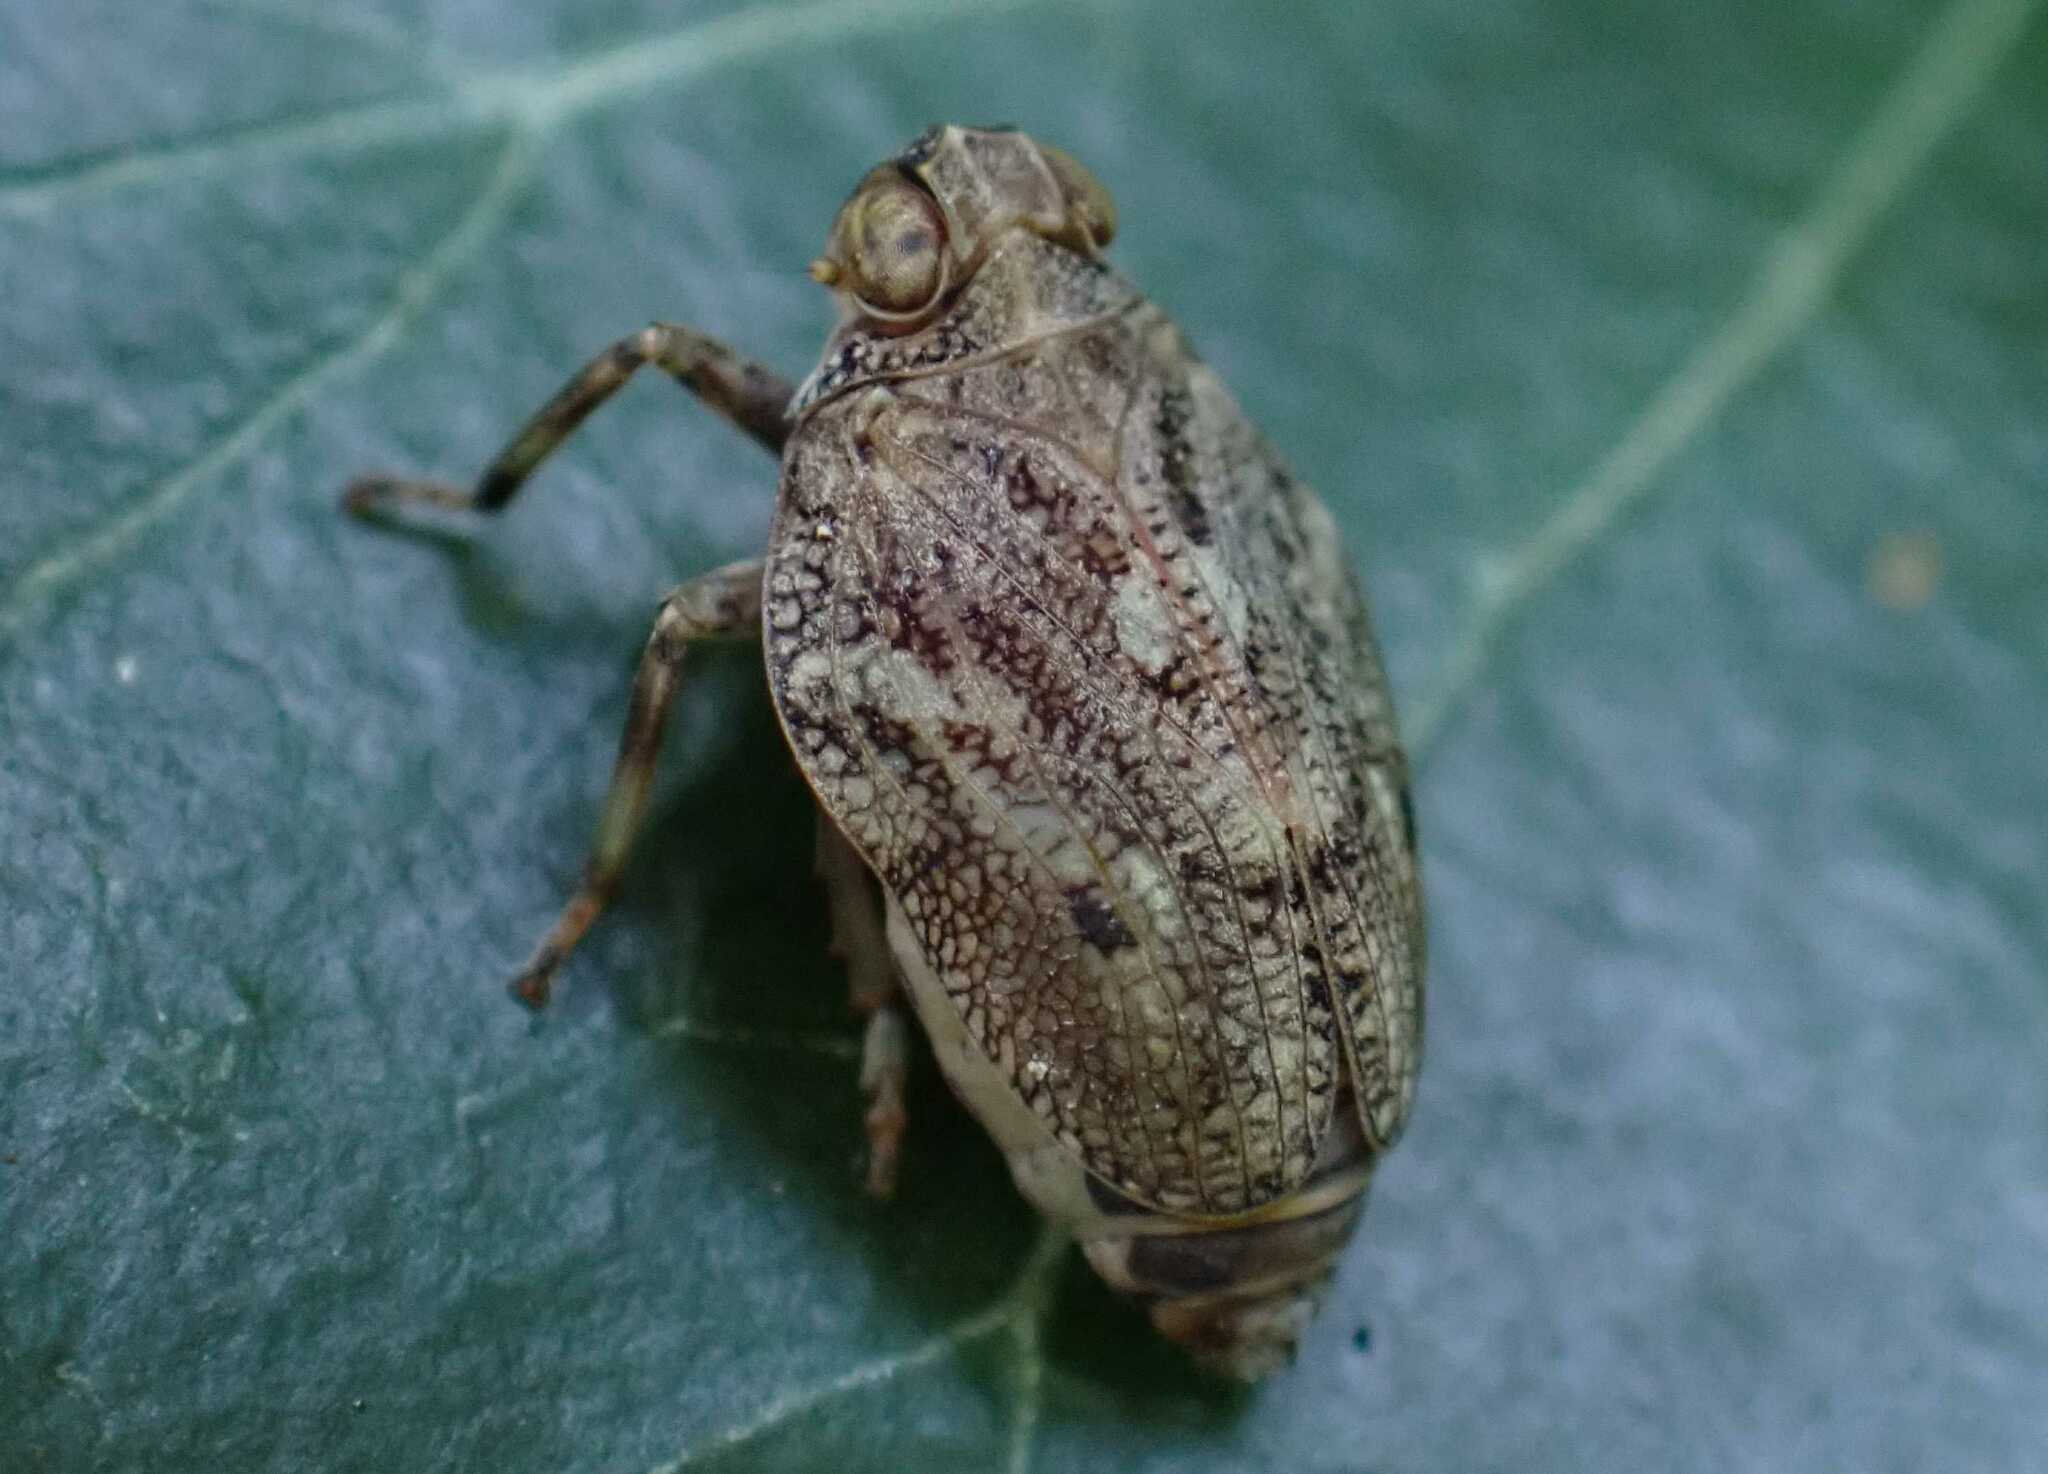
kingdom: Animalia
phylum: Arthropoda
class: Insecta
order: Hemiptera
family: Issidae
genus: Issus
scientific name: Issus coleoptratus
